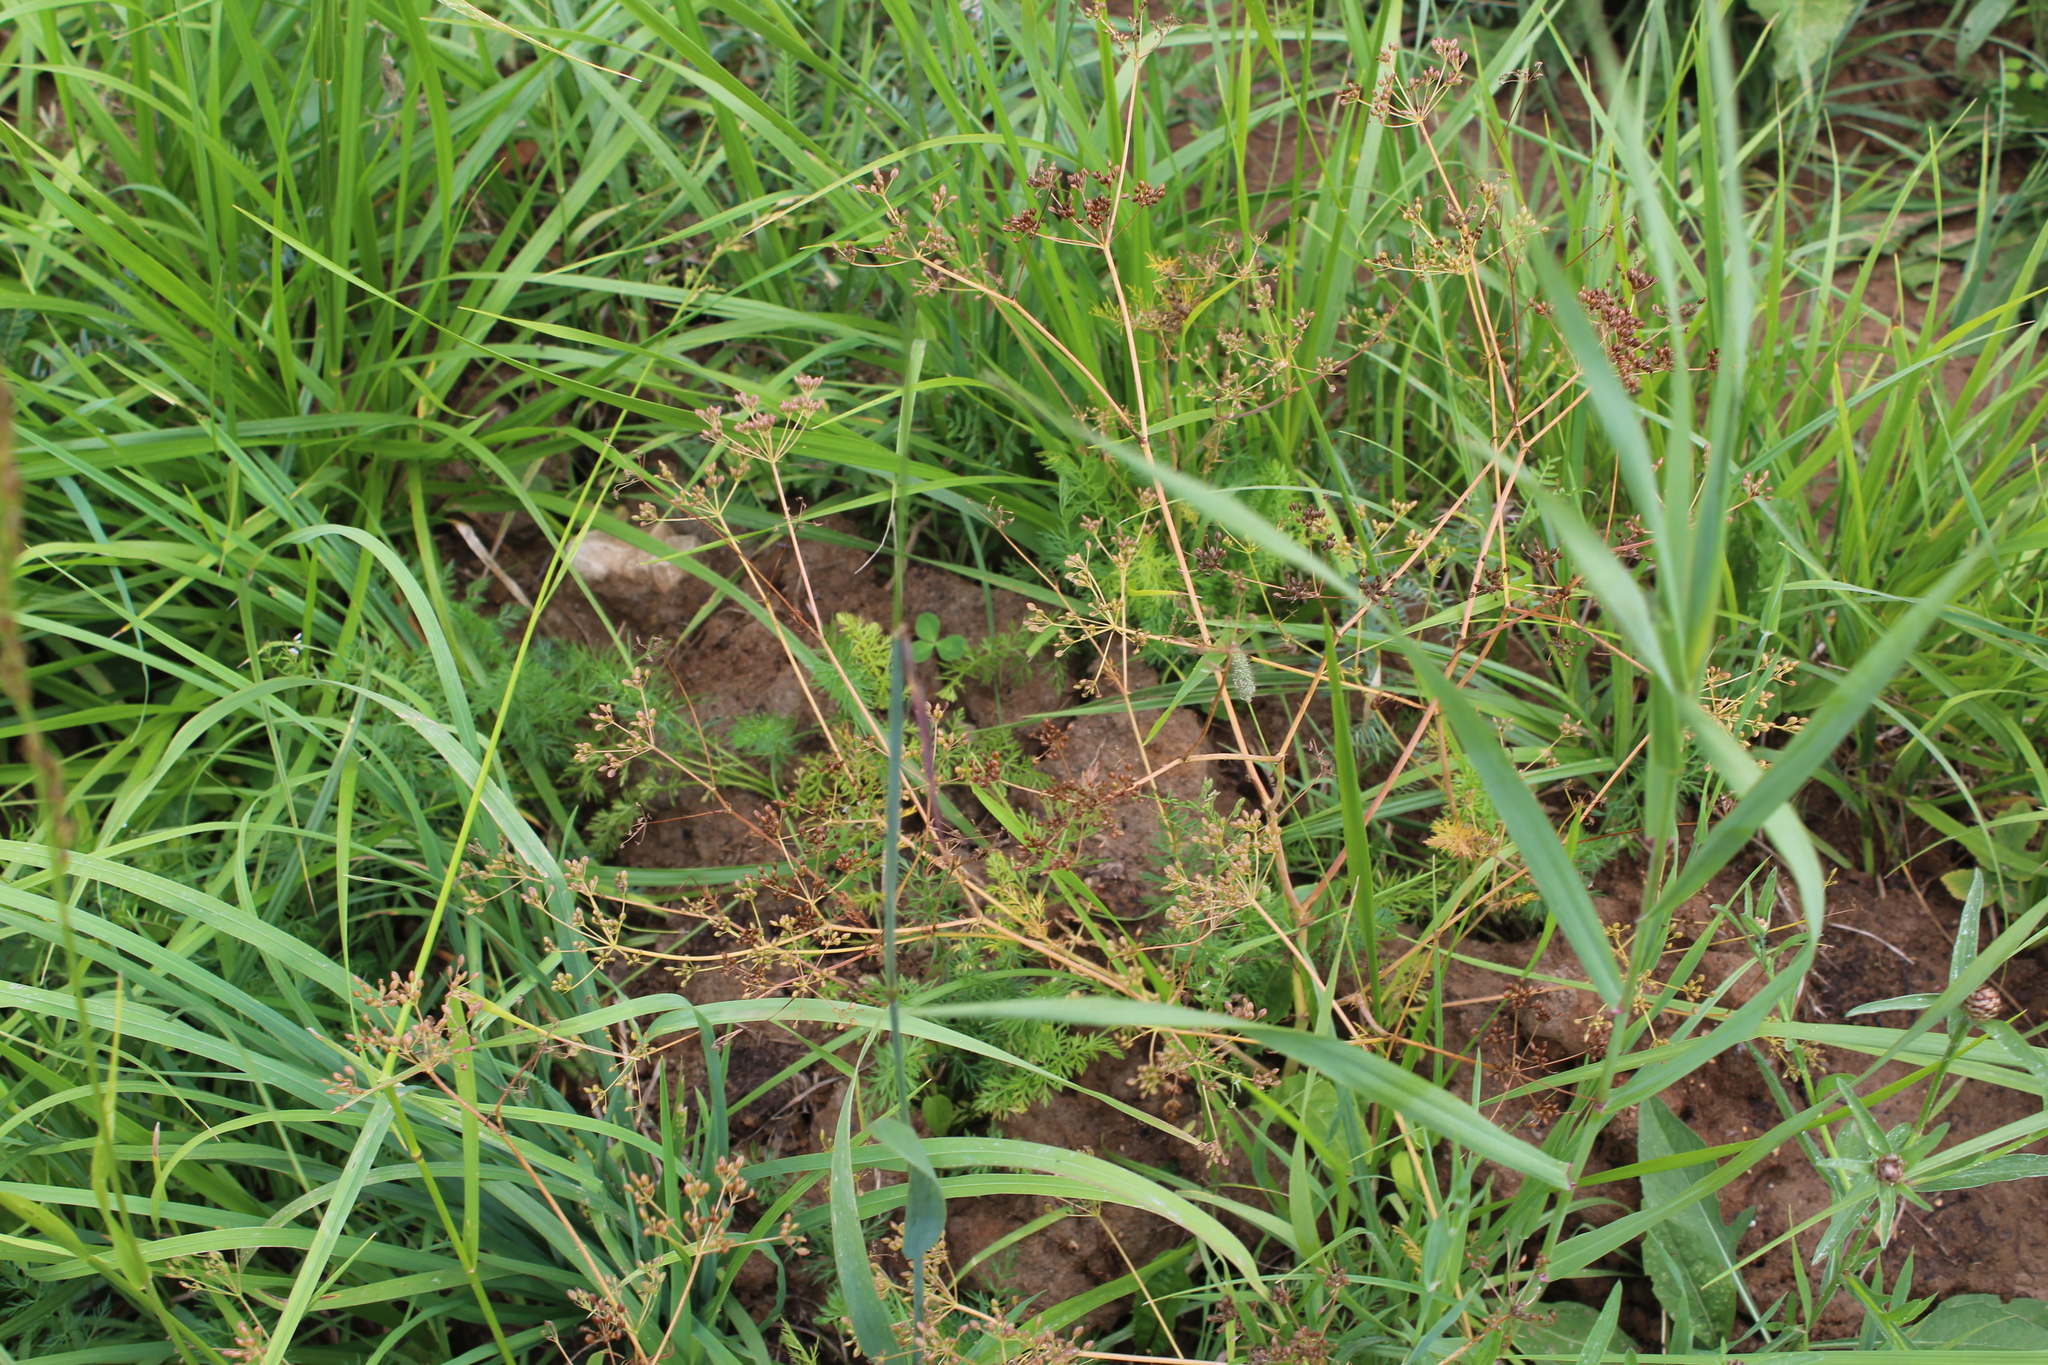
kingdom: Plantae
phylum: Tracheophyta
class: Magnoliopsida
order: Apiales
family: Apiaceae
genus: Carum
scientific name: Carum carvi
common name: Caraway
